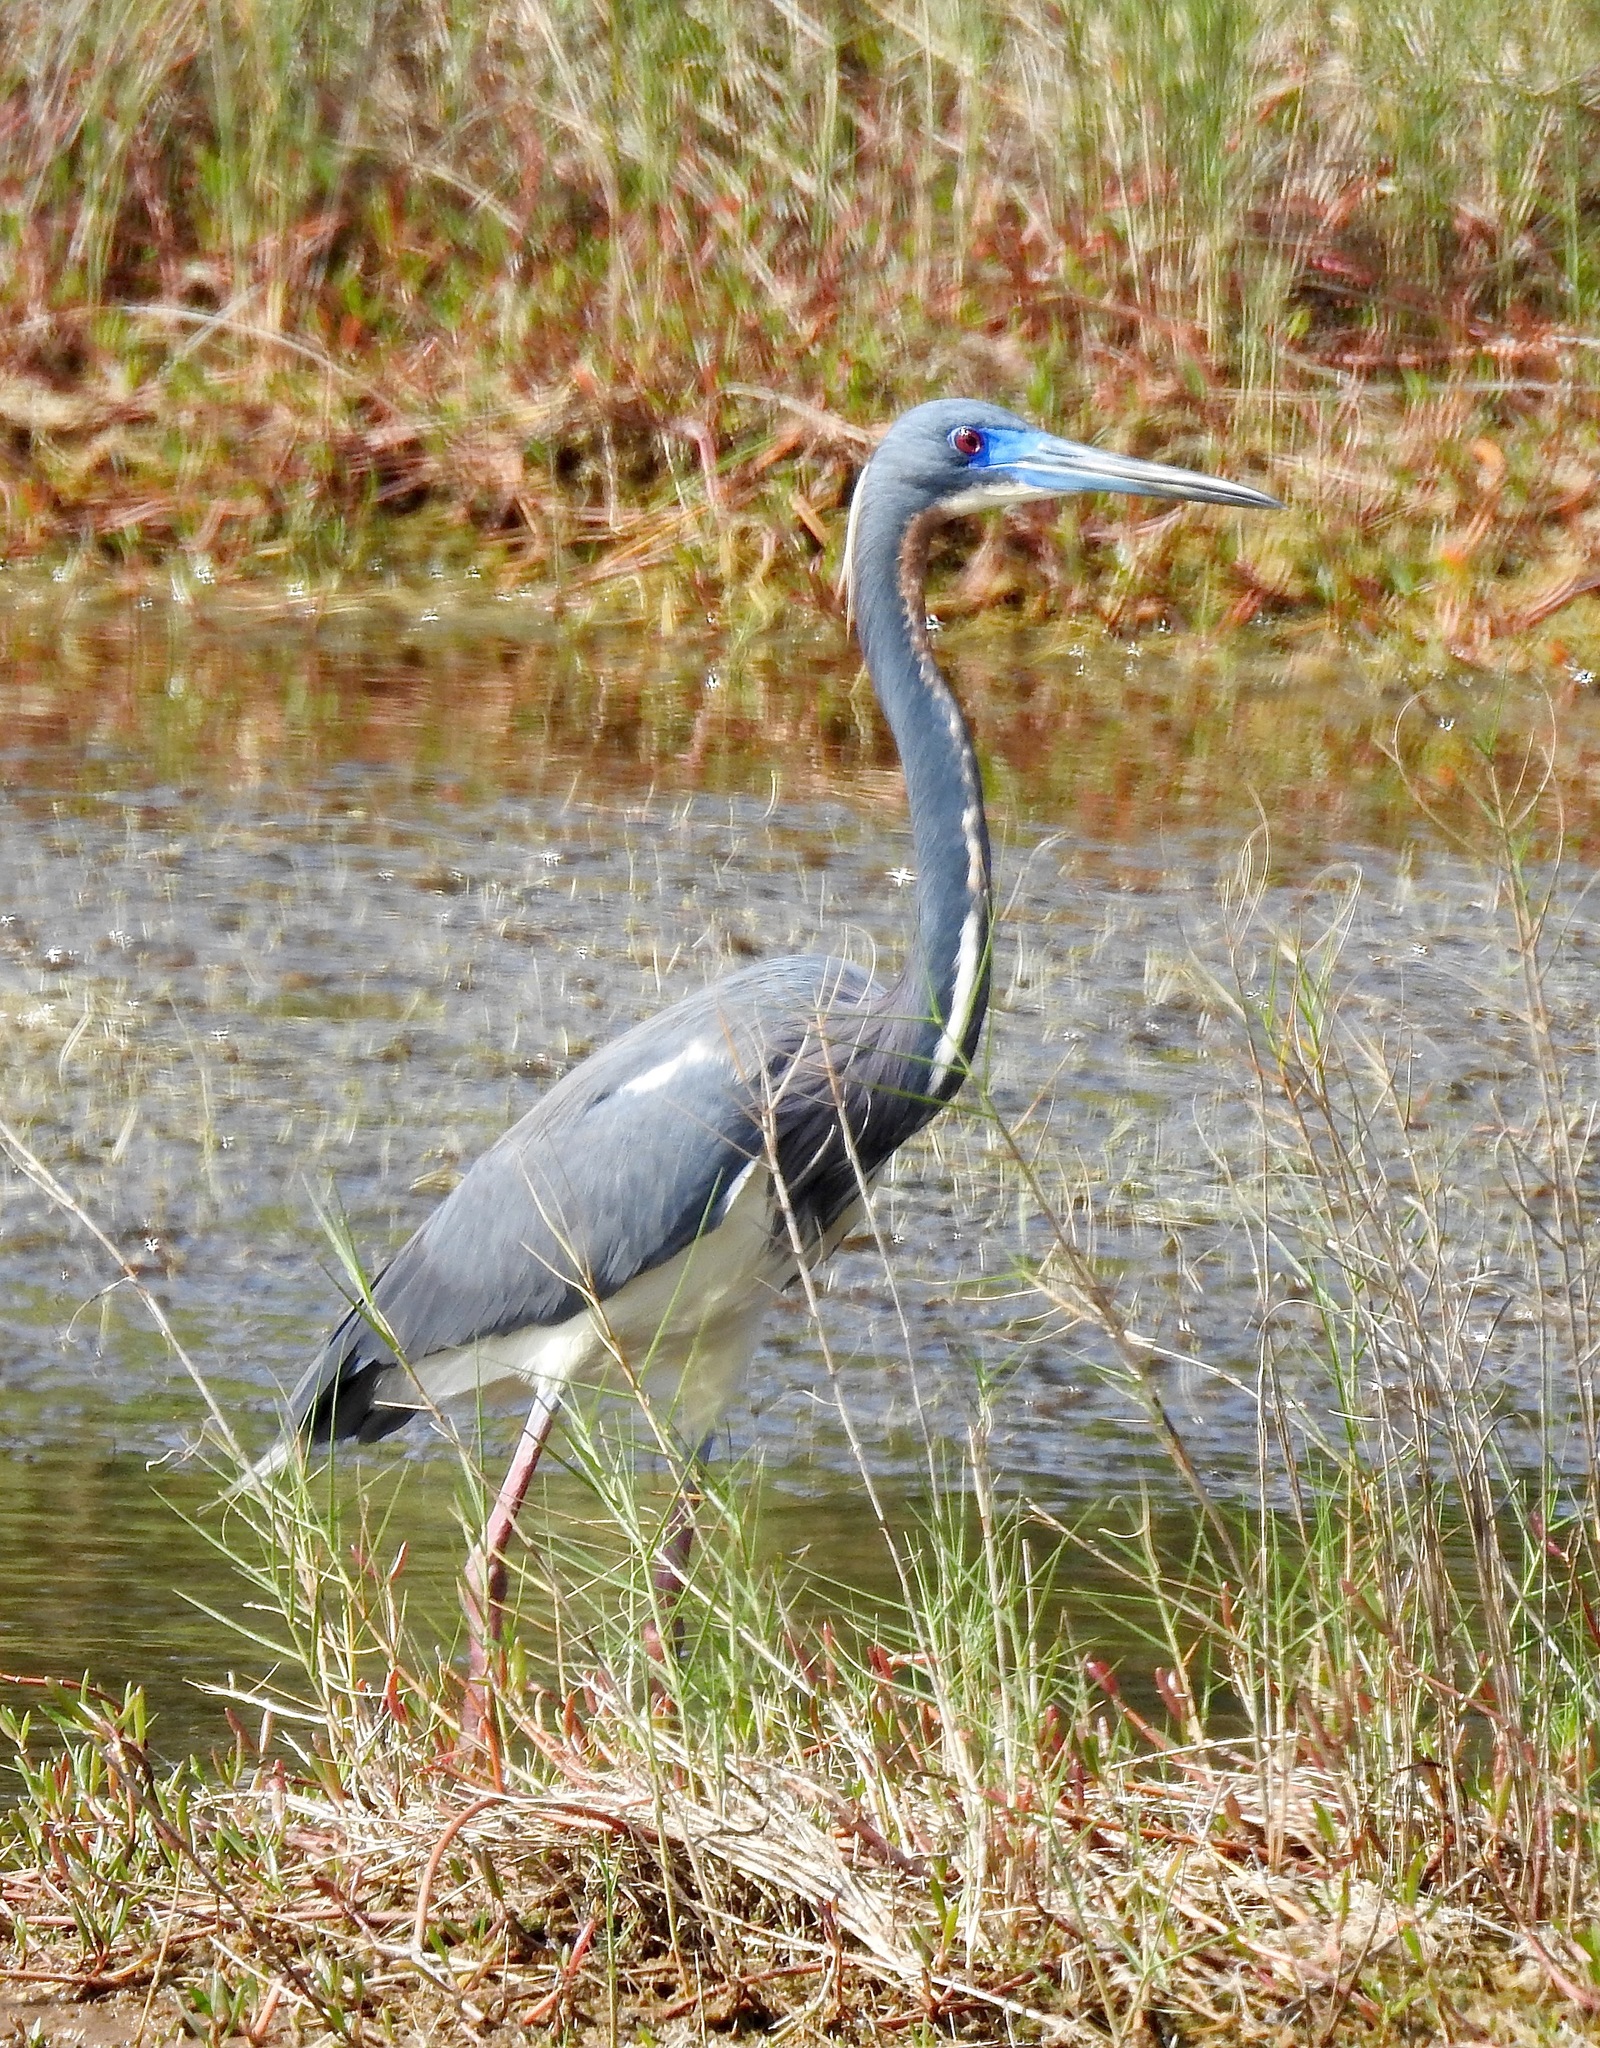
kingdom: Animalia
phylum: Chordata
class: Aves
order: Pelecaniformes
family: Ardeidae
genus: Egretta
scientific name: Egretta tricolor
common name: Tricolored heron
